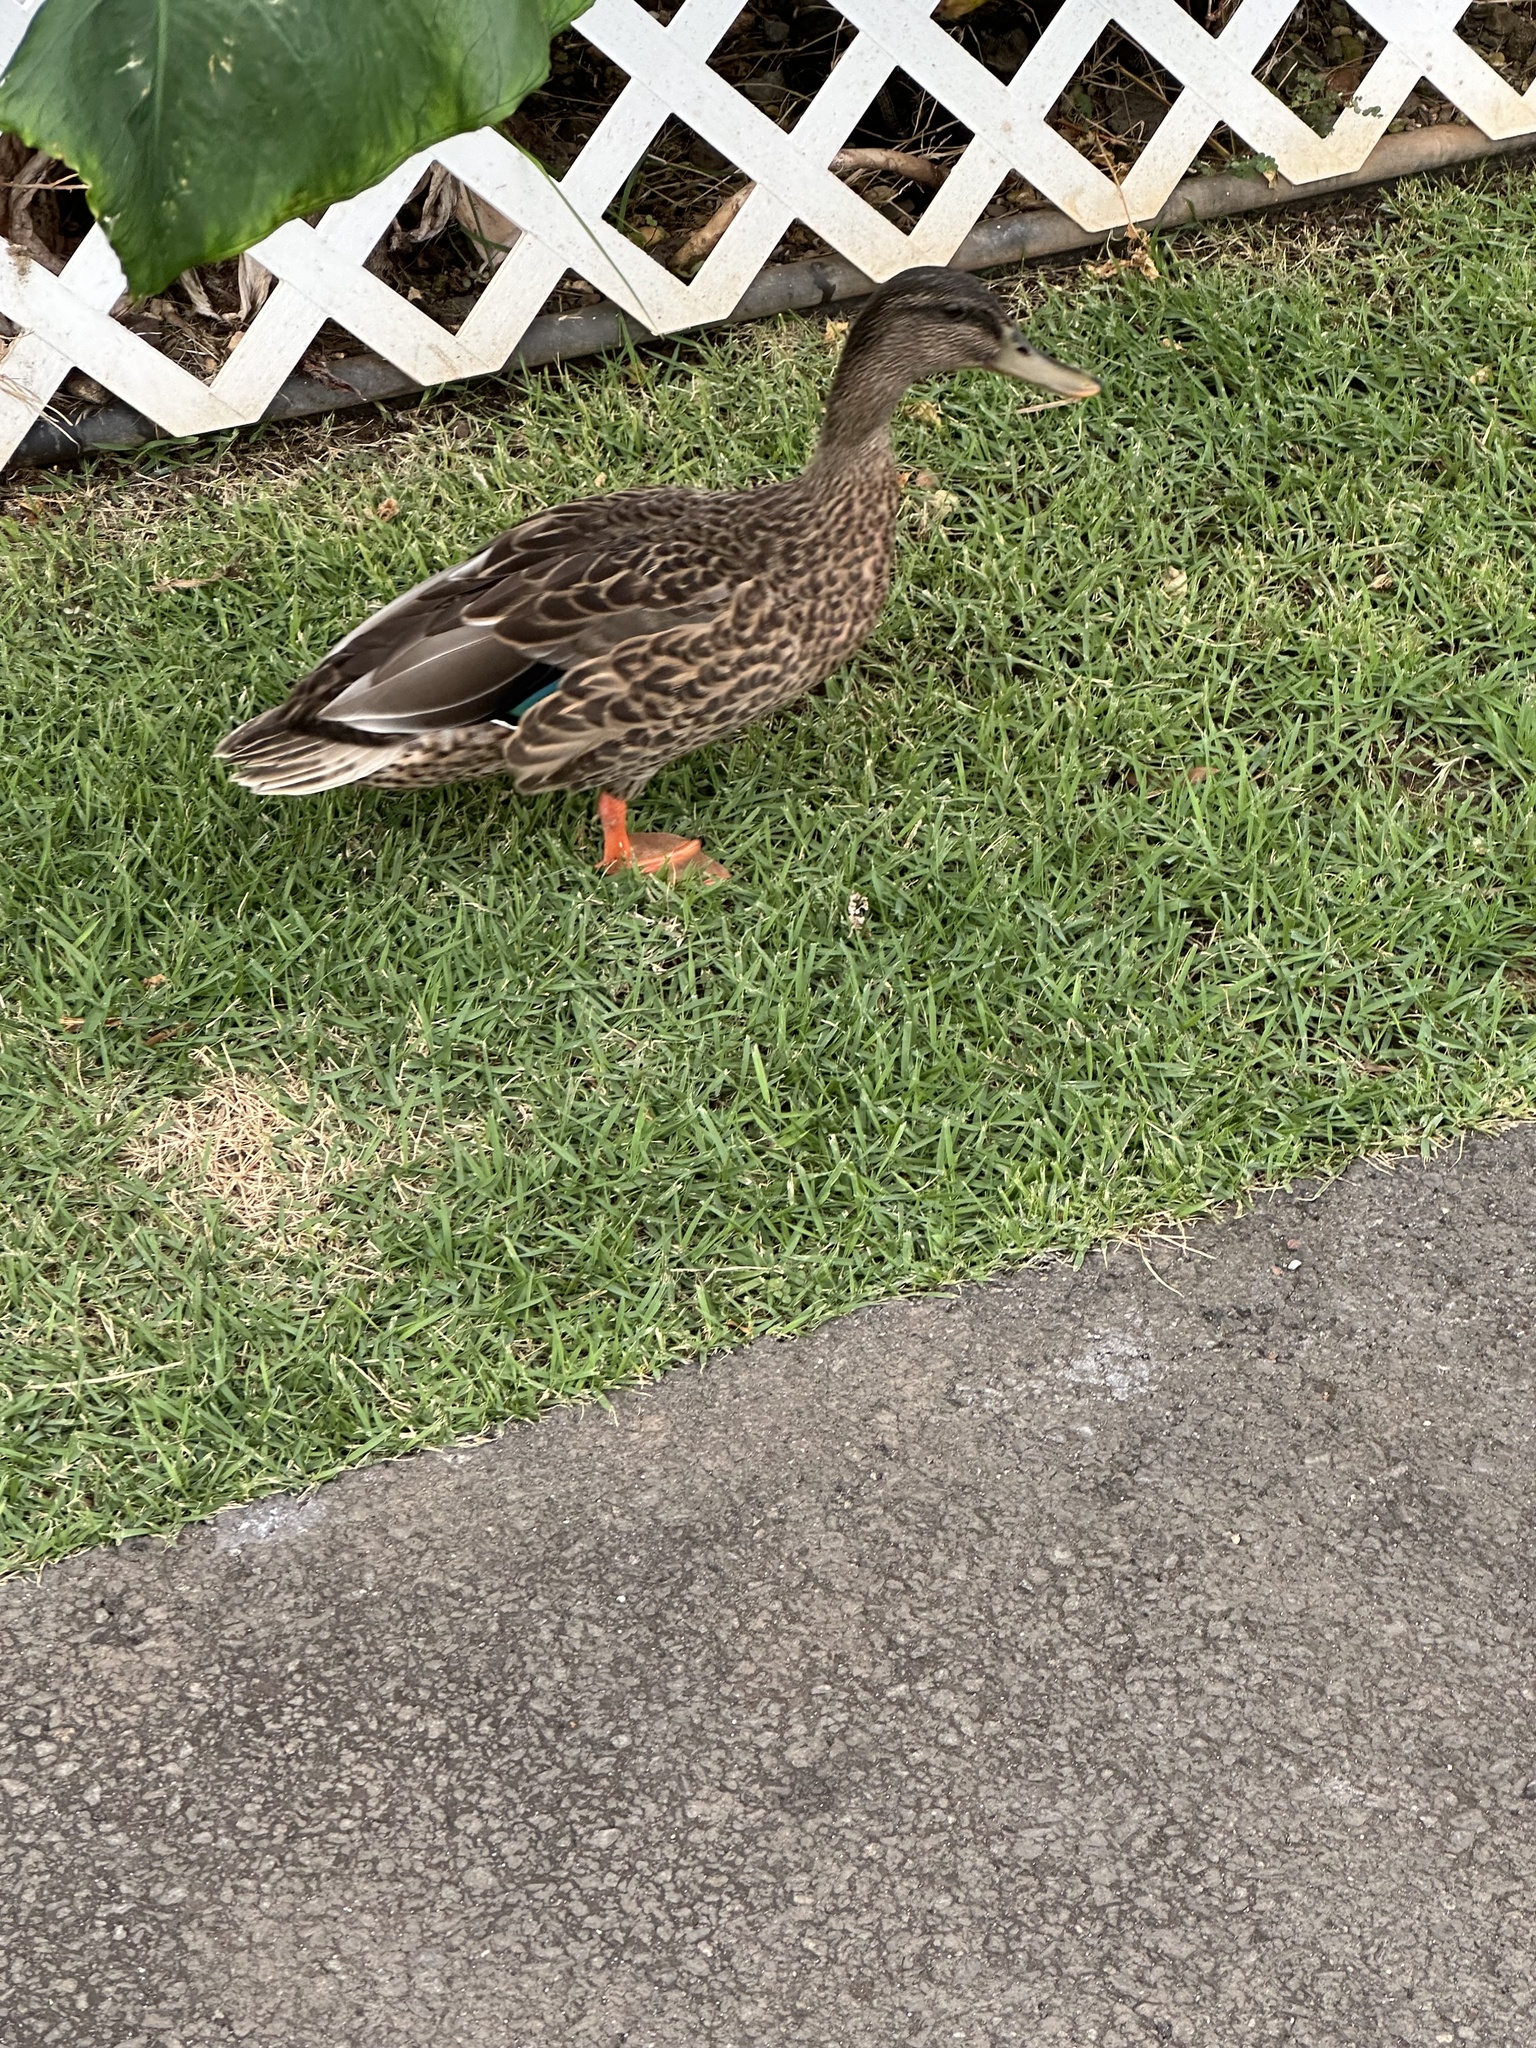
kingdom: Animalia
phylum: Chordata
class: Aves
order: Anseriformes
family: Anatidae
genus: Anas
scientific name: Anas
